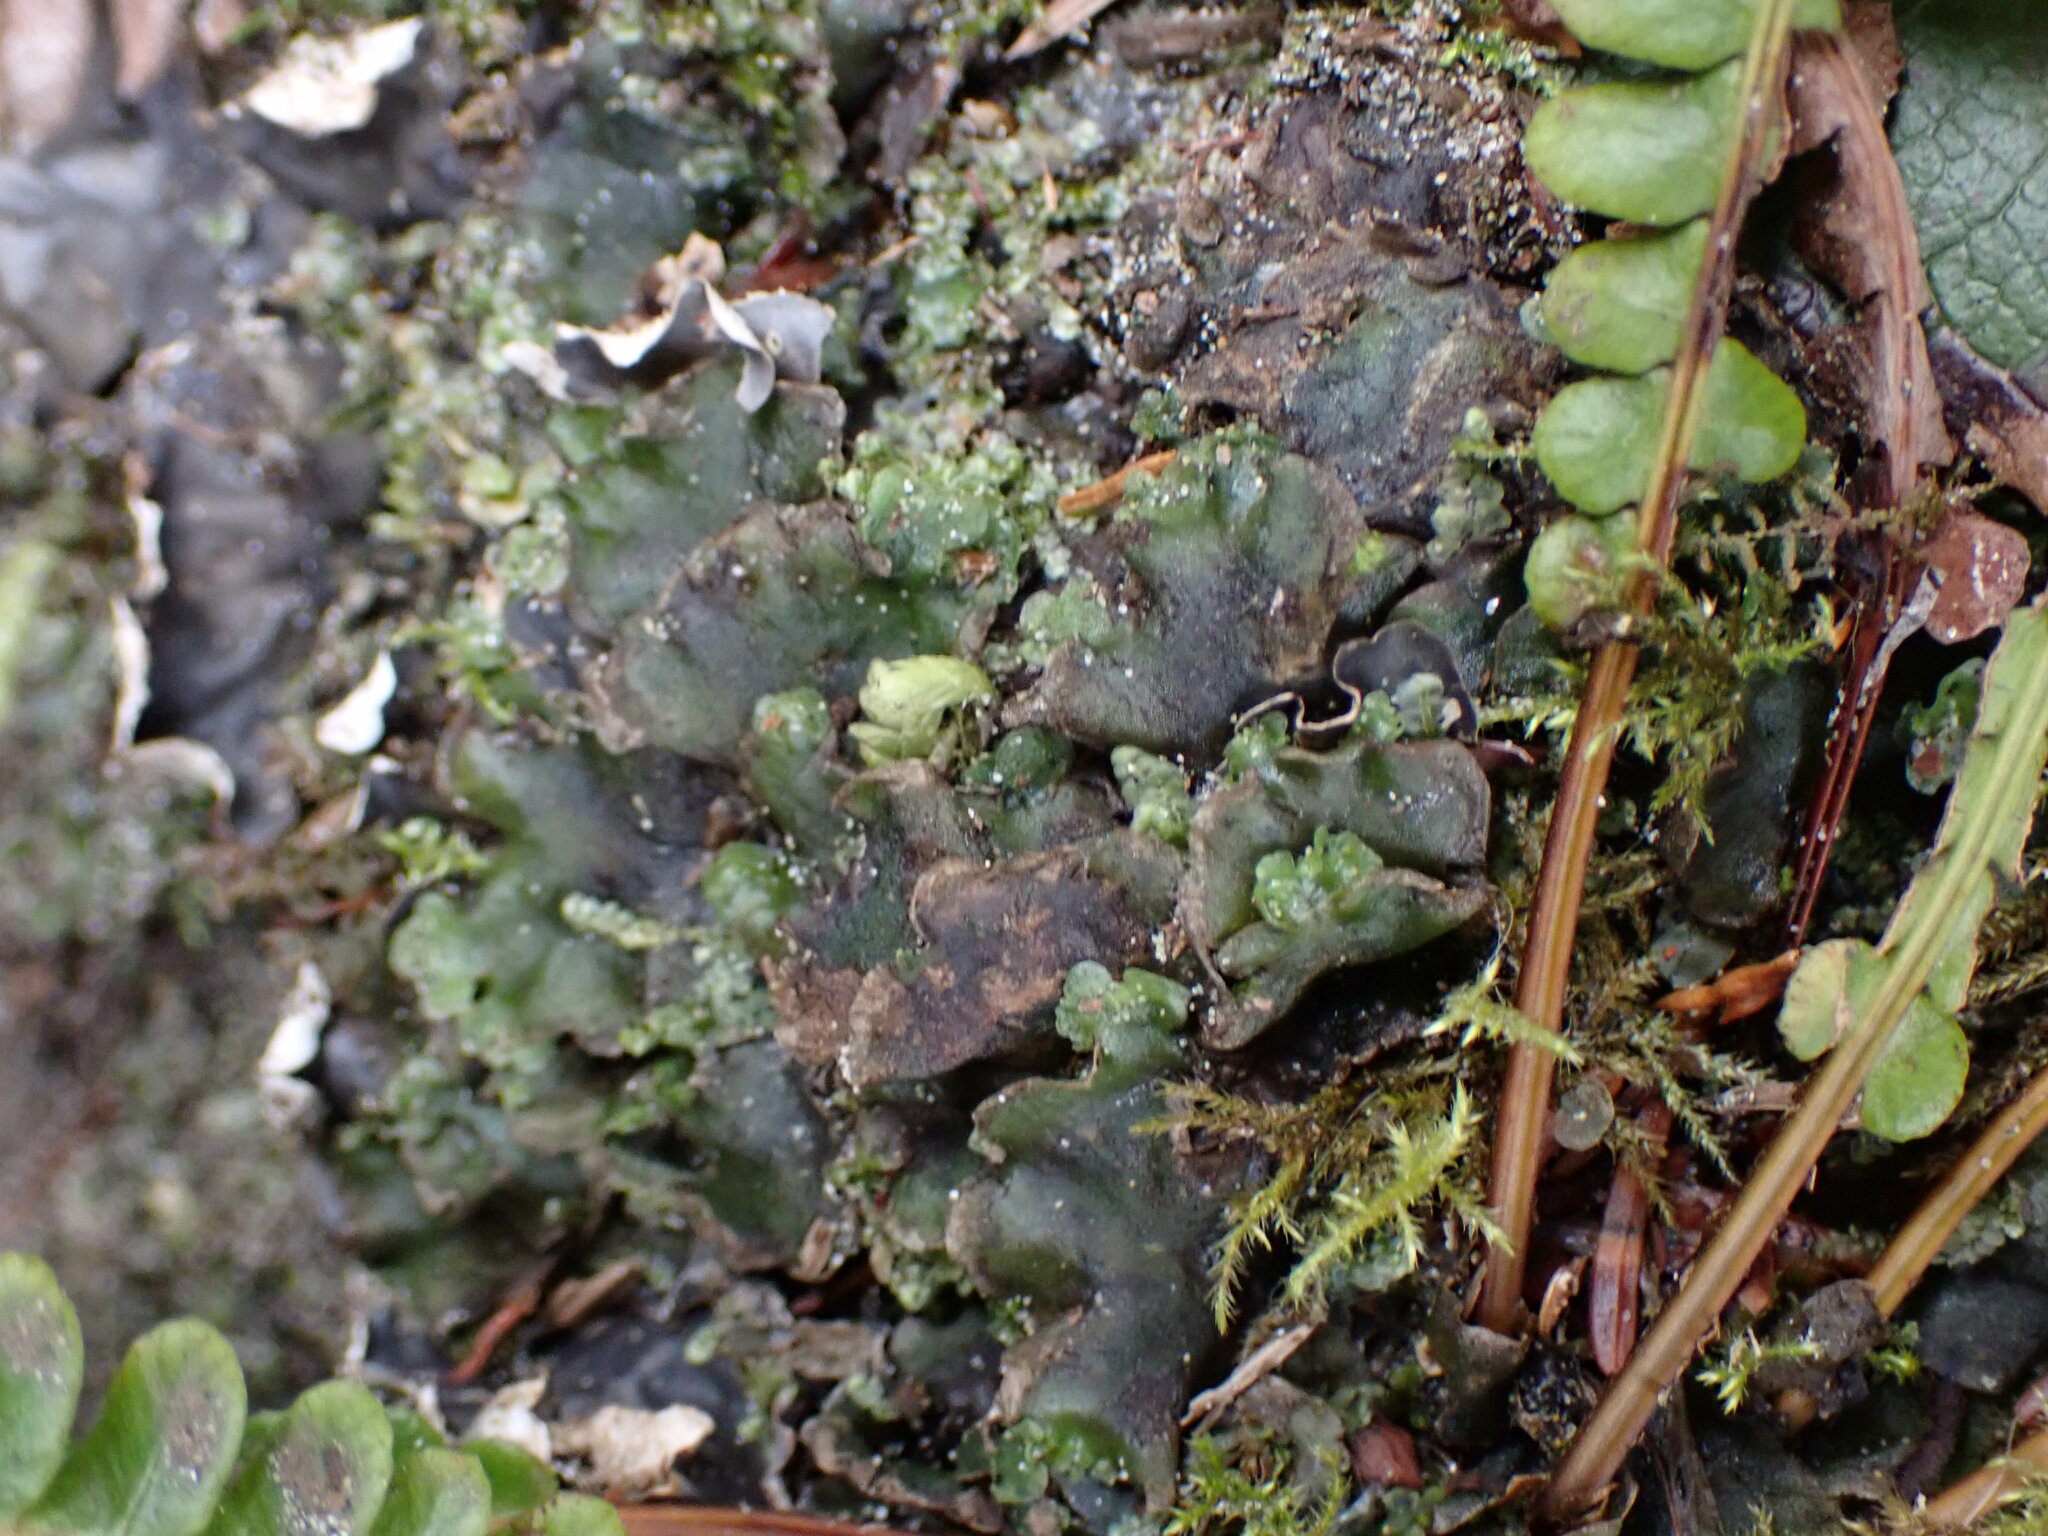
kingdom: Plantae
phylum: Marchantiophyta
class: Jungermanniopsida
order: Pelliales
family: Pelliaceae
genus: Pellia
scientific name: Pellia neesiana
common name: Nees  pellia
